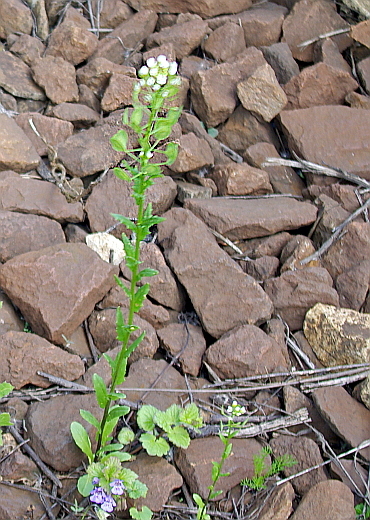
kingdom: Plantae
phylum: Tracheophyta
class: Magnoliopsida
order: Brassicales
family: Brassicaceae
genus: Thlaspi
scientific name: Thlaspi arvense
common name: Field pennycress
